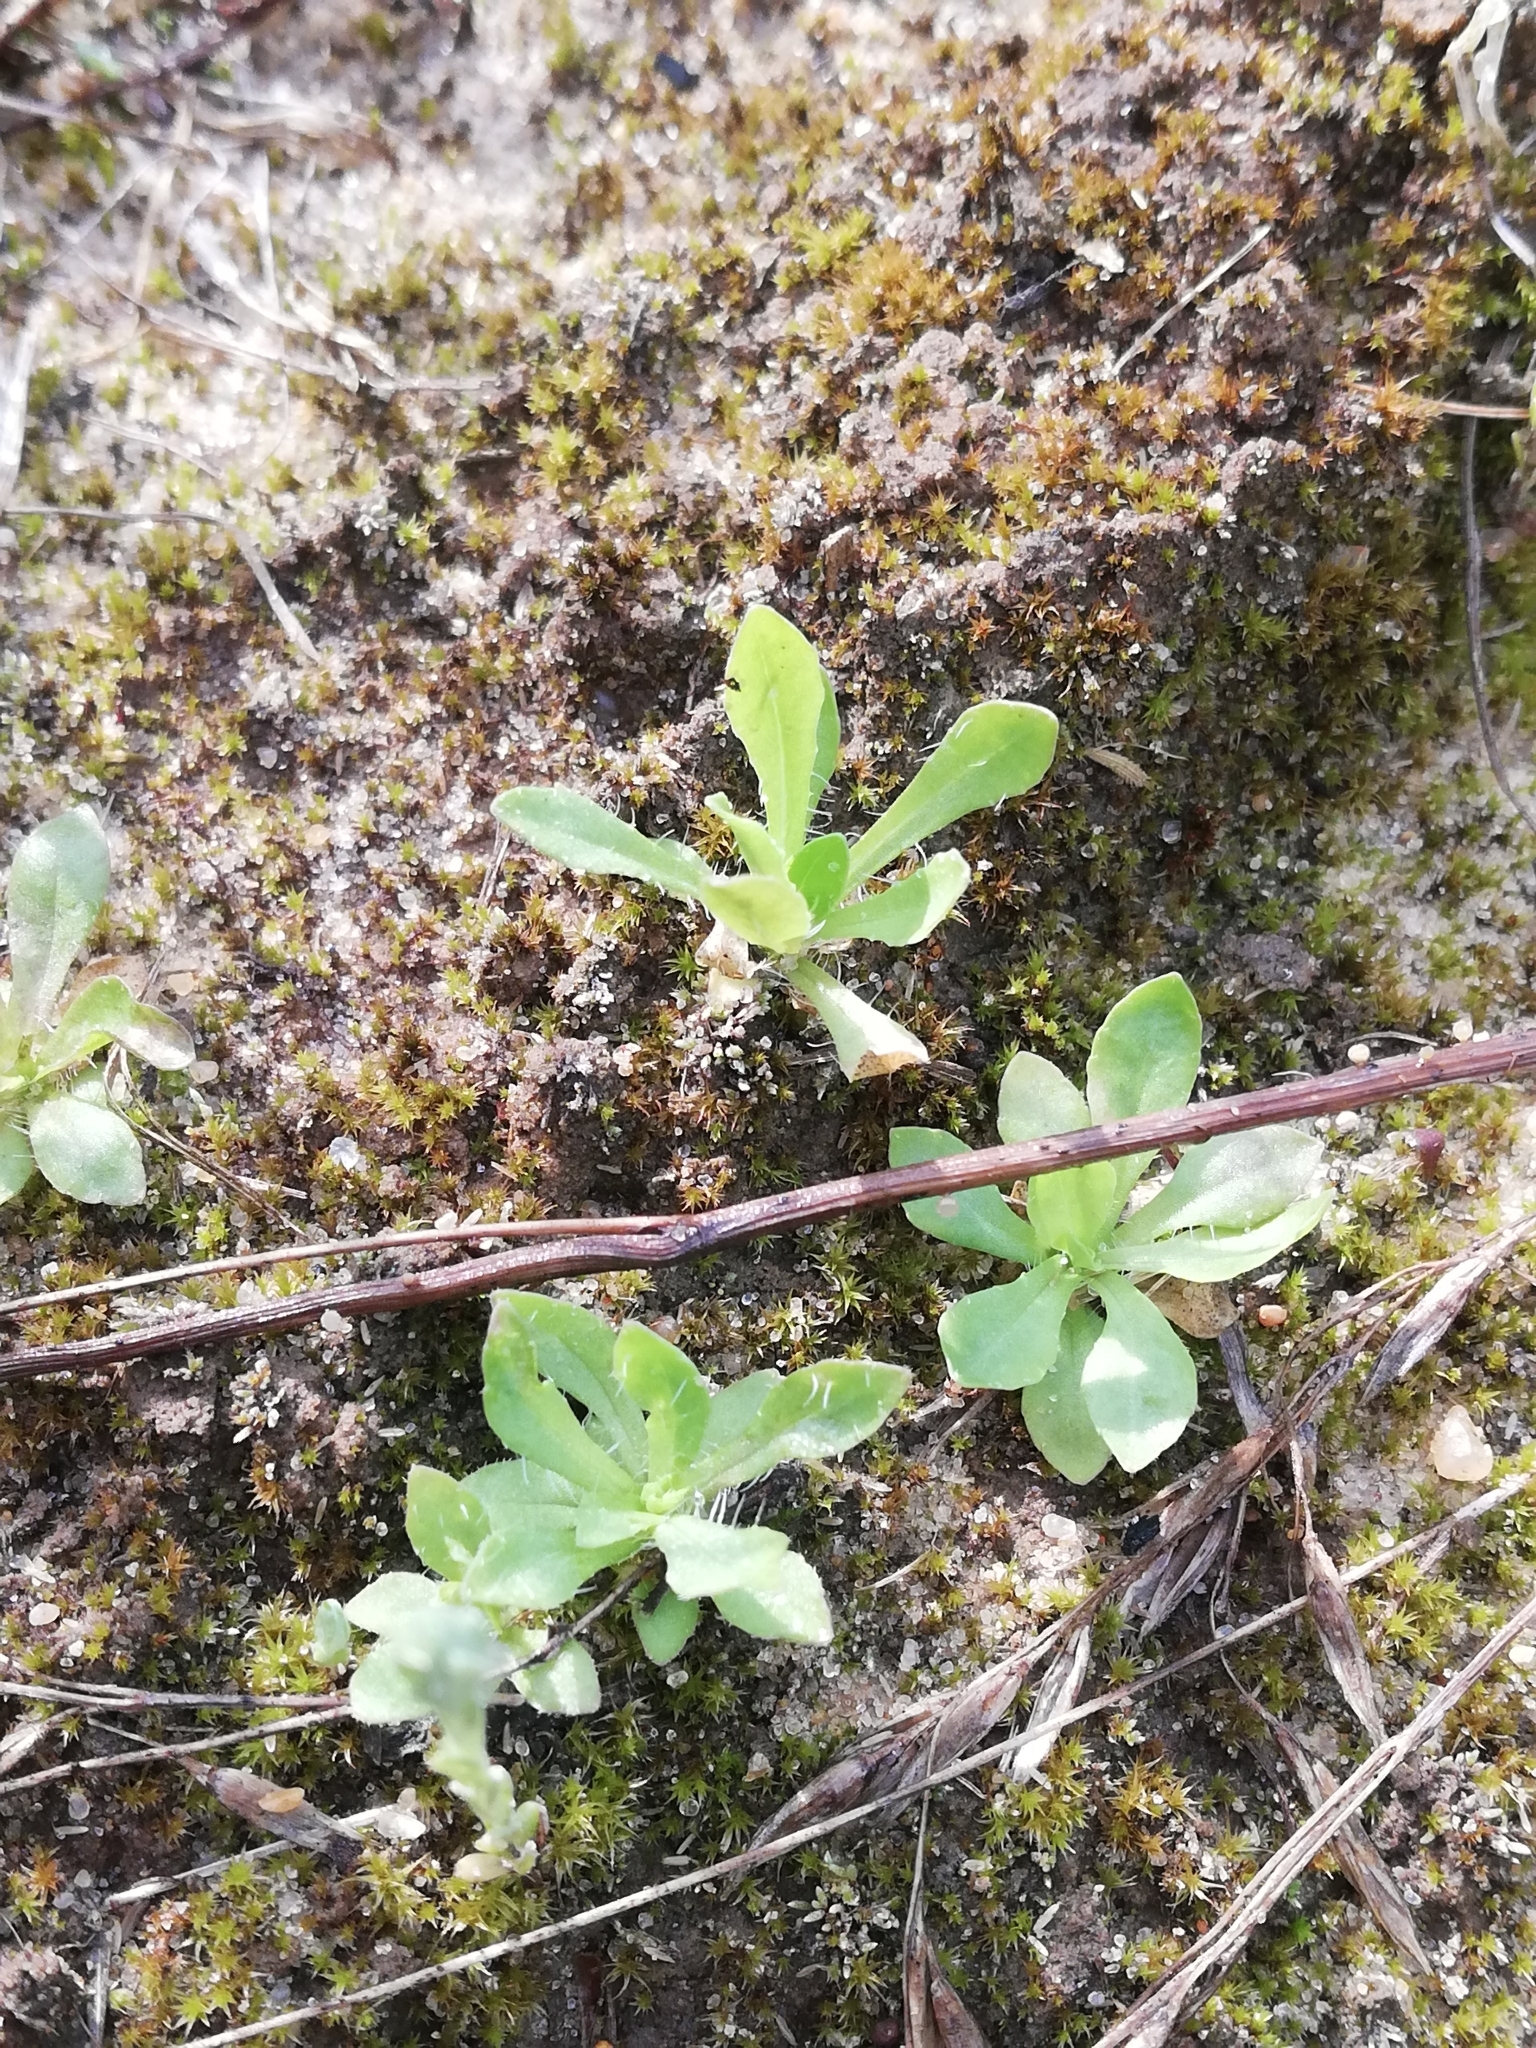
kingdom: Plantae
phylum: Tracheophyta
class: Magnoliopsida
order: Asterales
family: Asteraceae
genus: Helichrysum
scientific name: Helichrysum arenarium
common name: Strawflower
